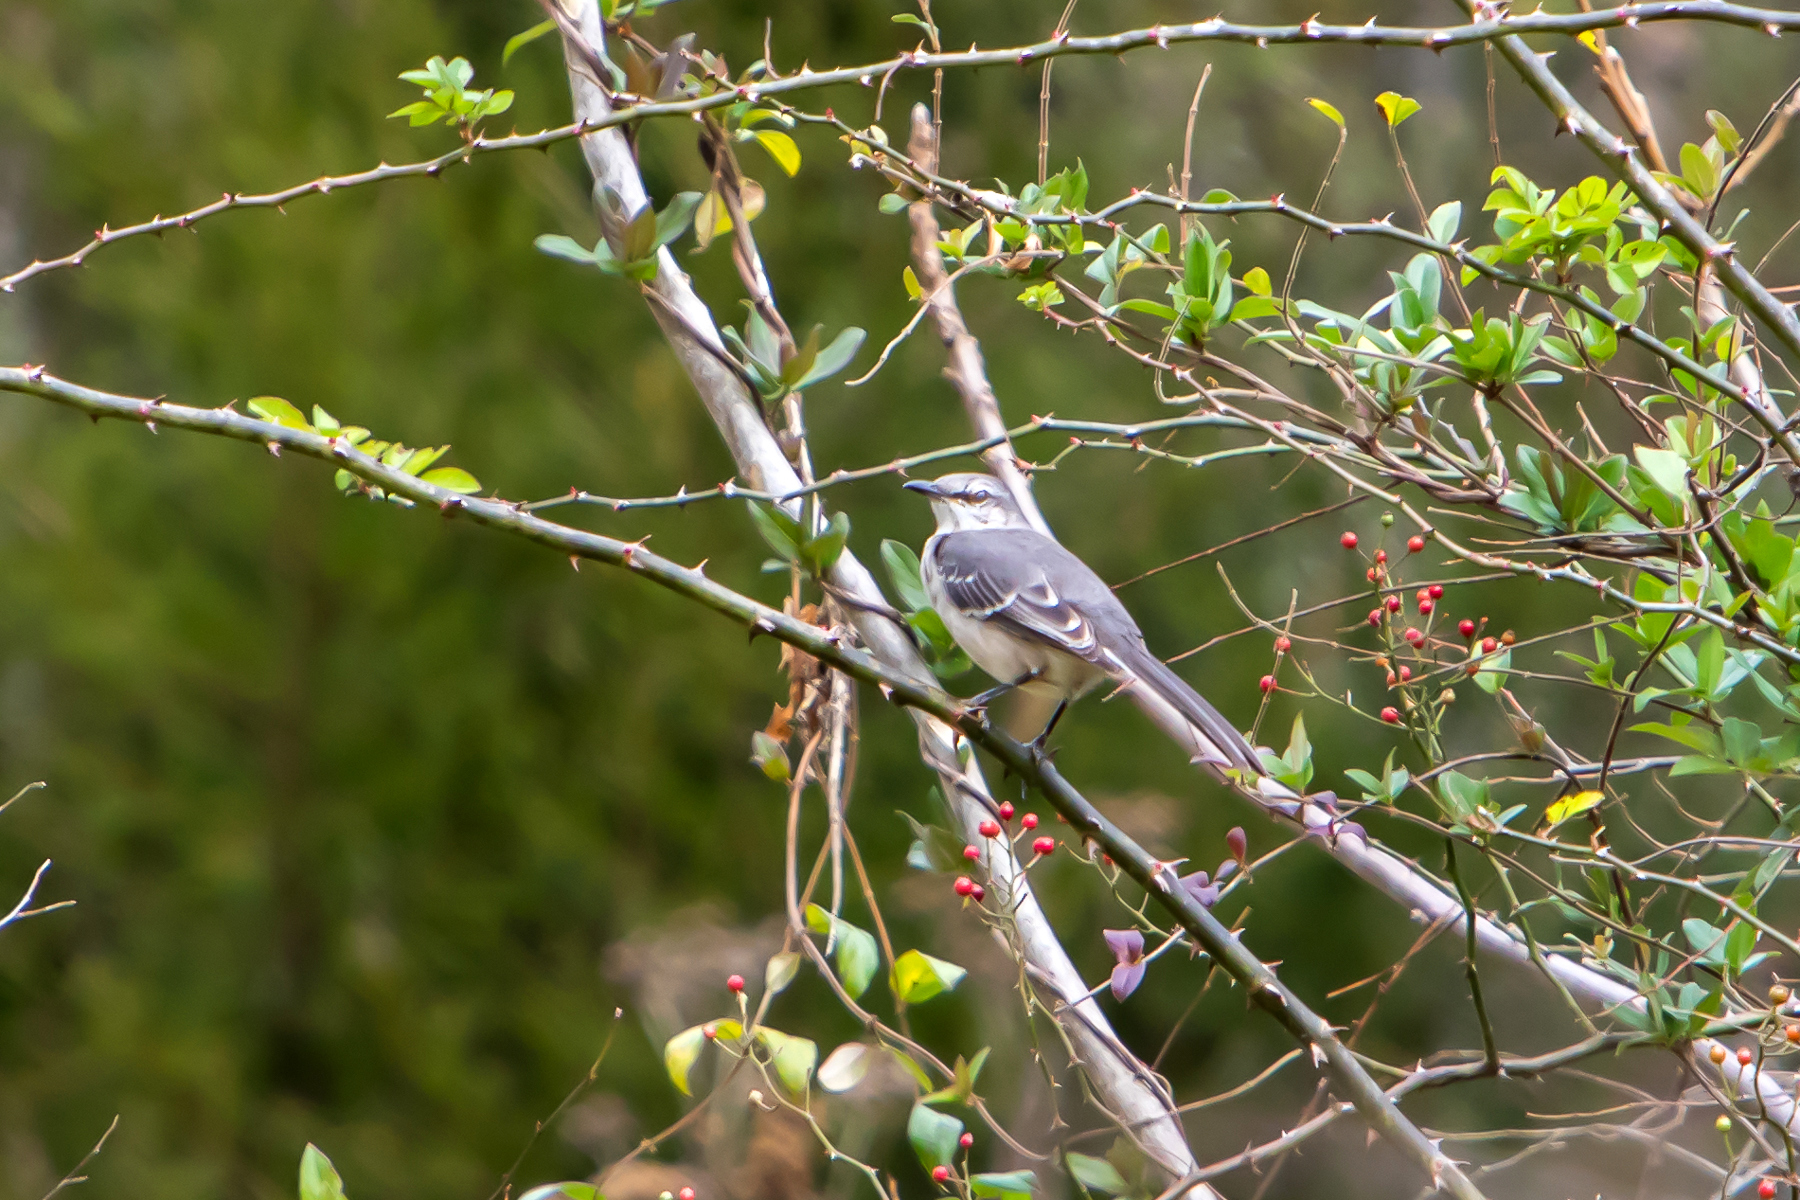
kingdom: Animalia
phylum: Chordata
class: Aves
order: Passeriformes
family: Mimidae
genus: Mimus
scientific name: Mimus polyglottos
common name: Northern mockingbird
